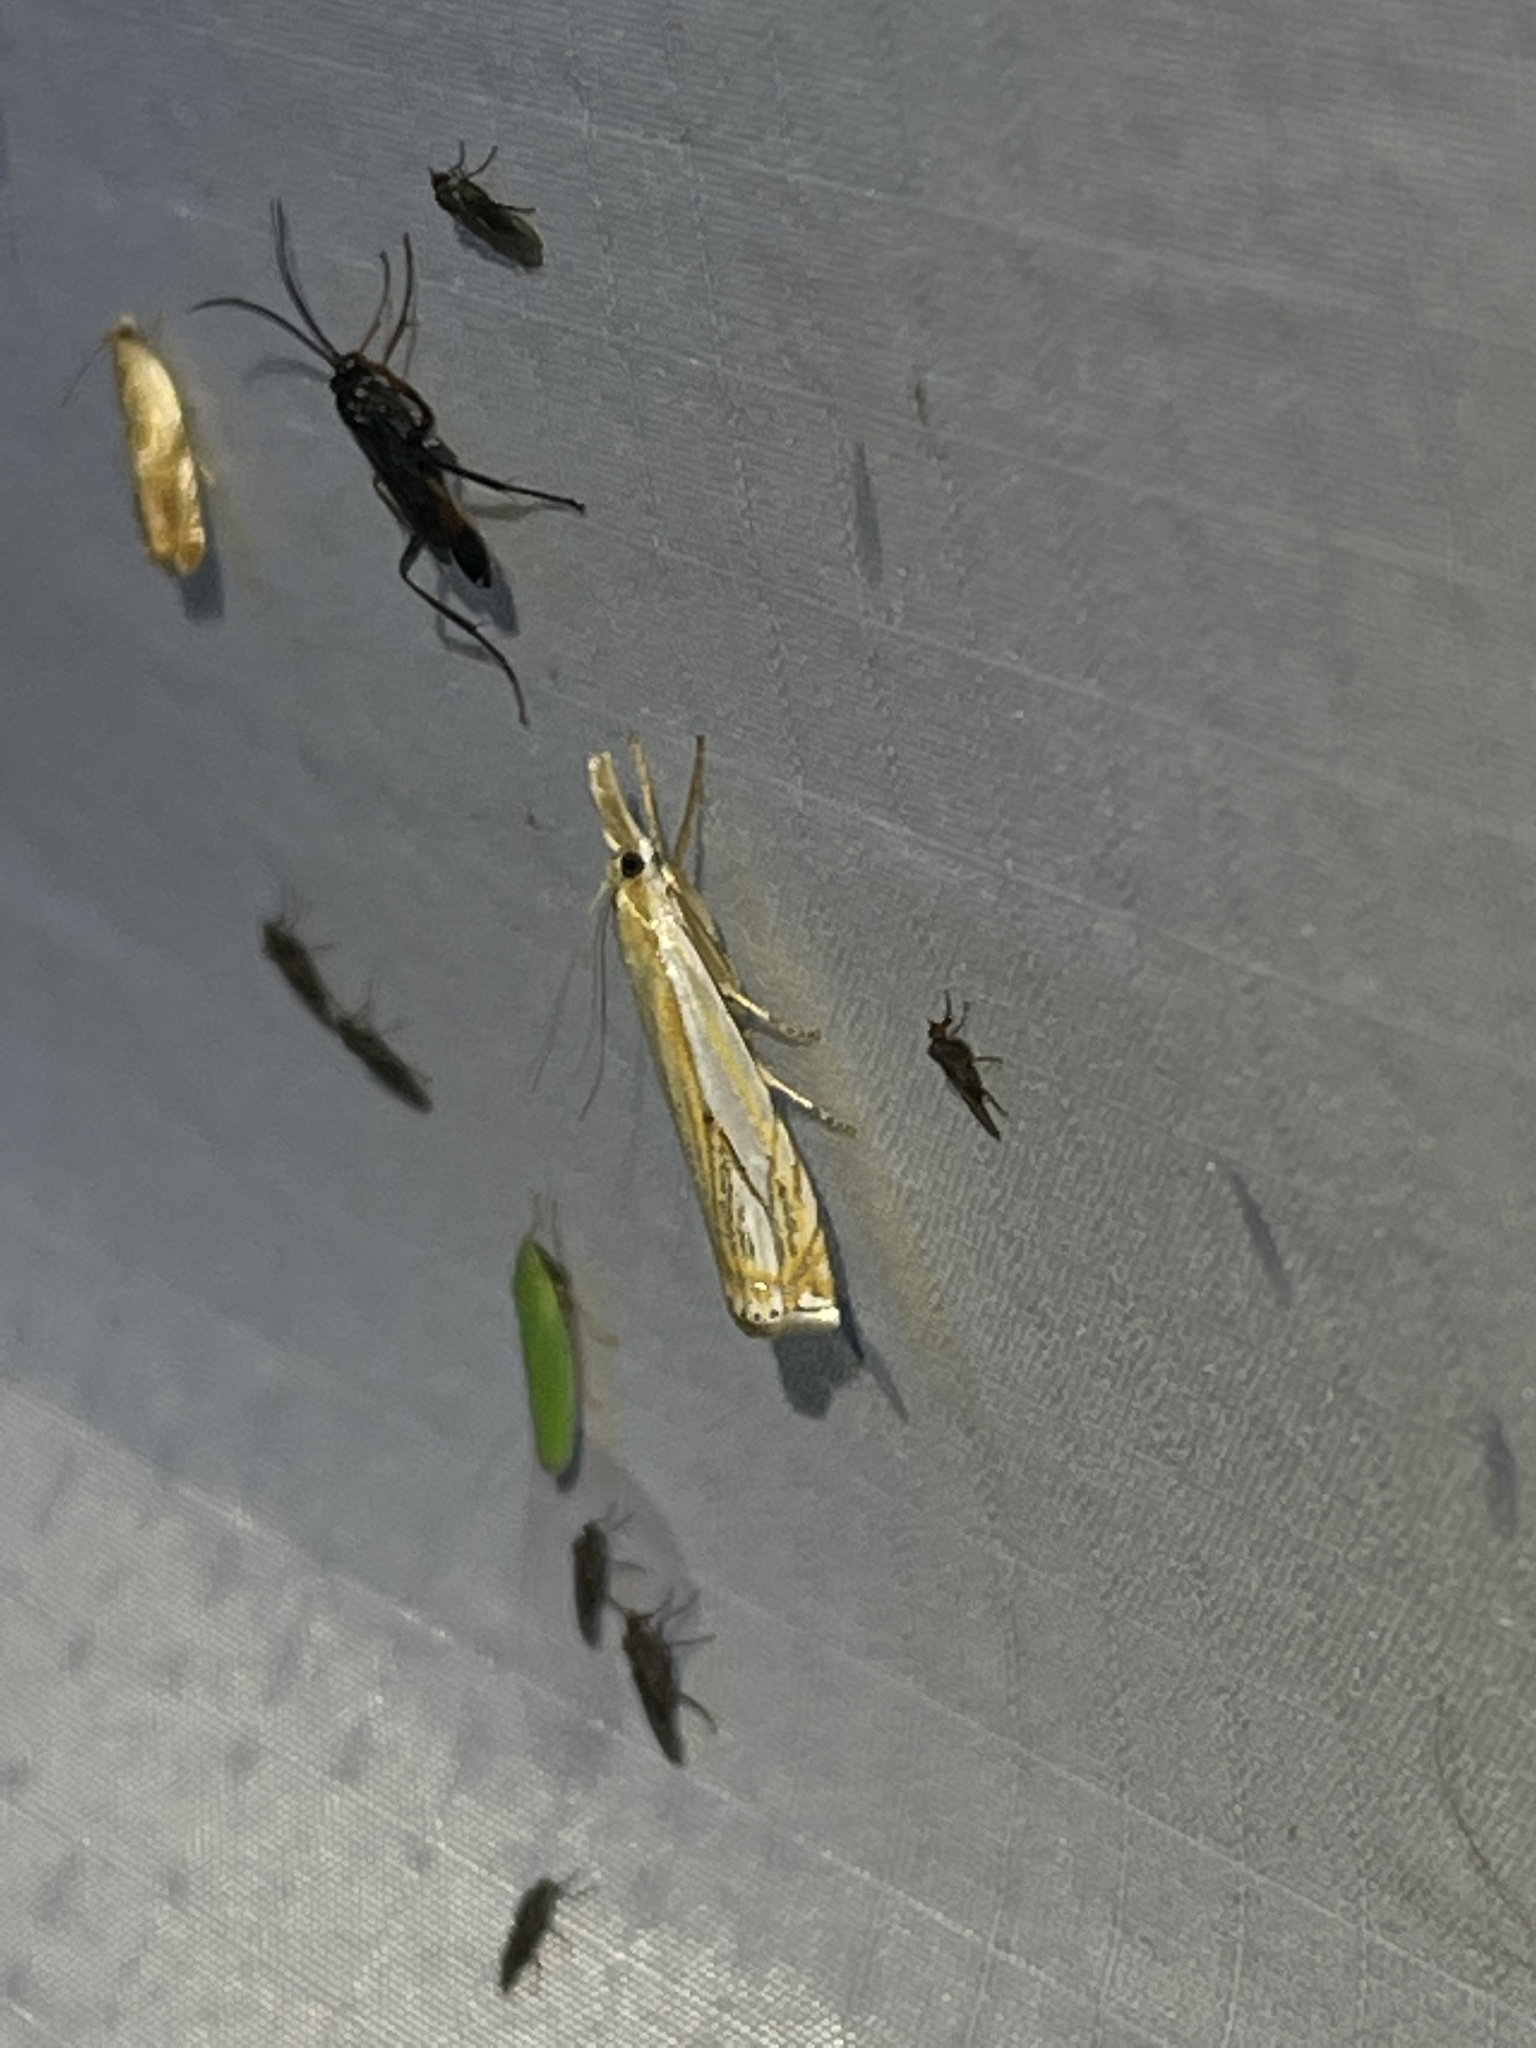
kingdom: Animalia
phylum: Arthropoda
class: Insecta
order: Lepidoptera
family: Crambidae
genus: Crambus
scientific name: Crambus saltuellus
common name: Pasture grass-veneer
